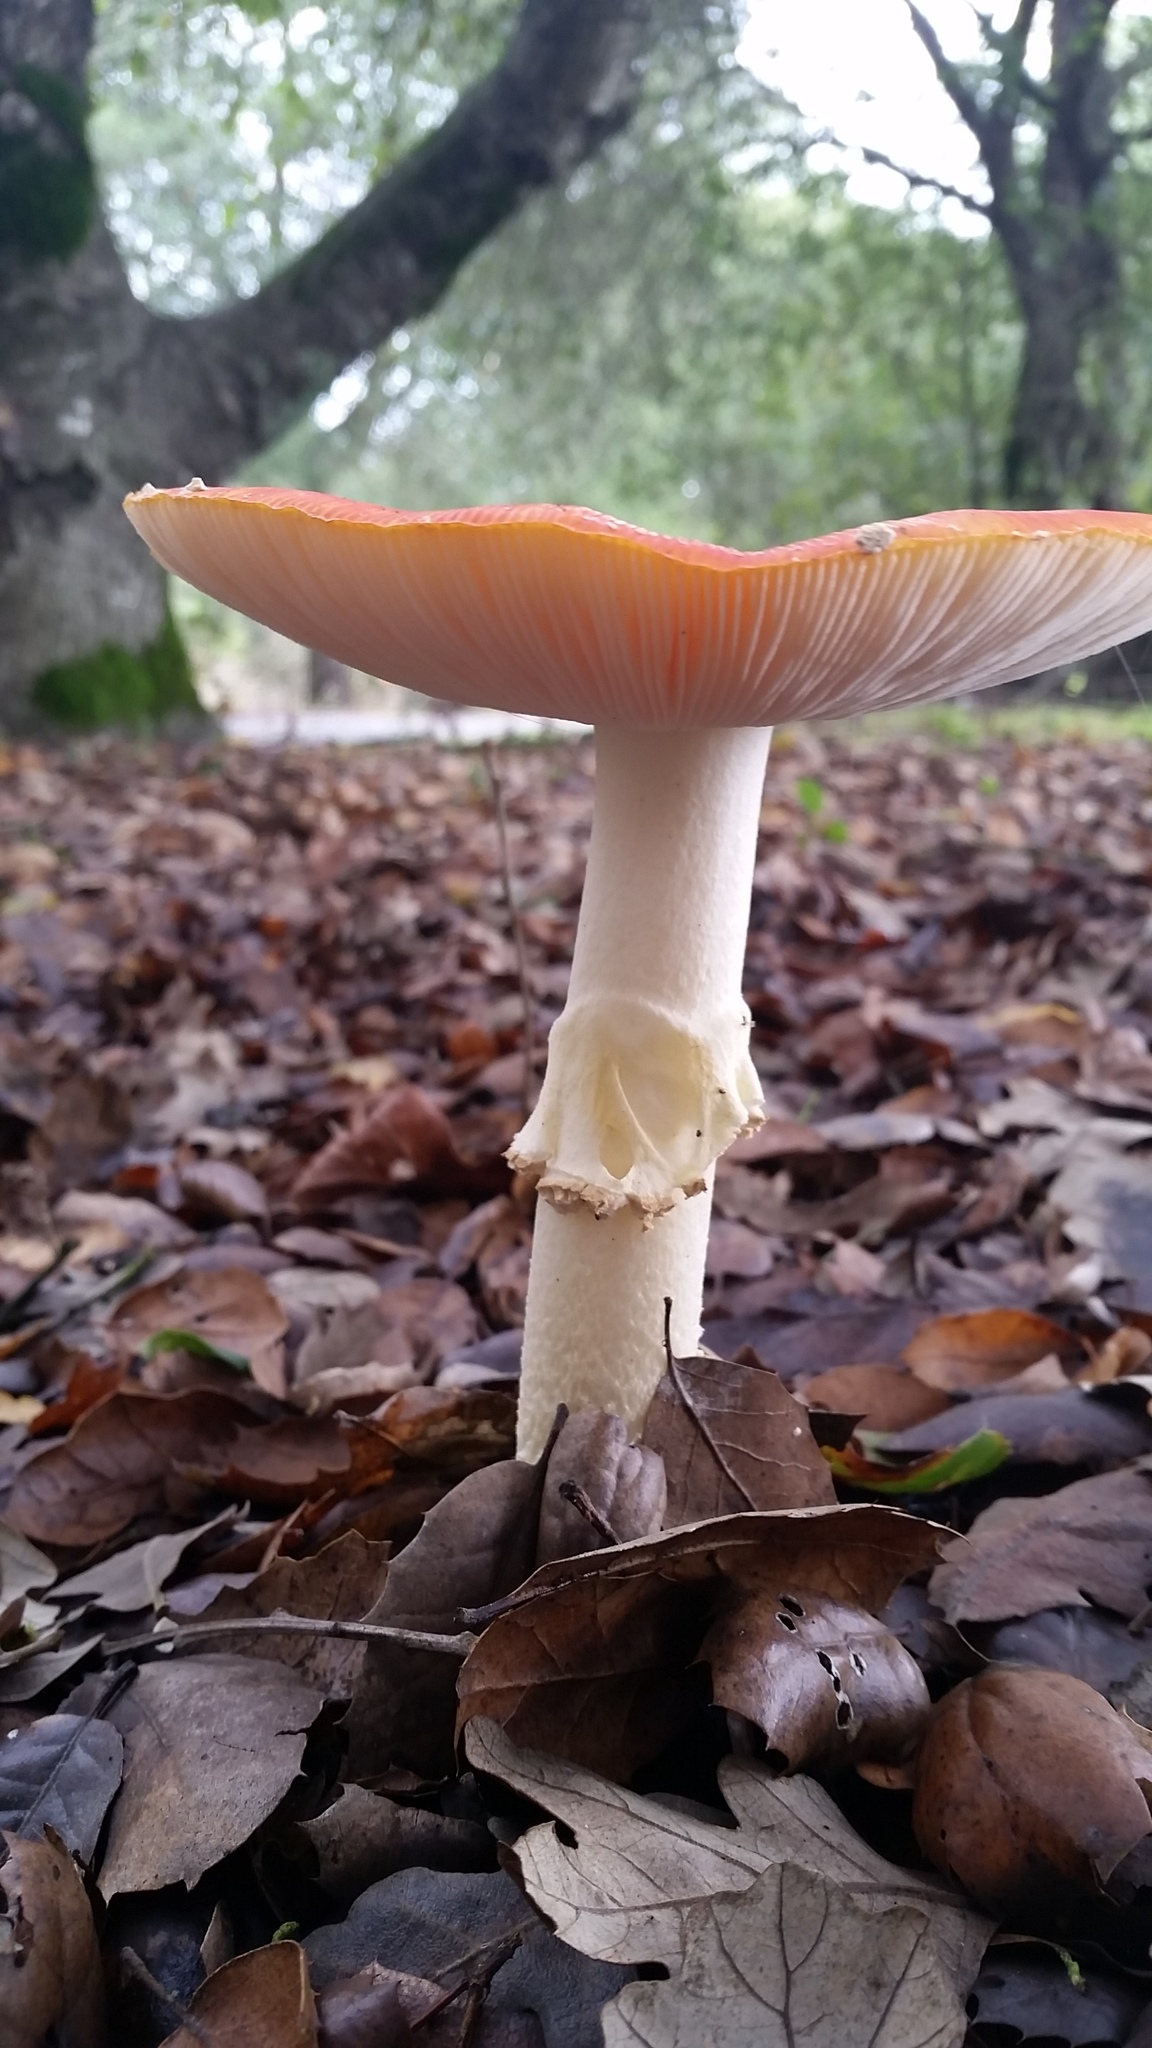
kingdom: Fungi
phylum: Basidiomycota
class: Agaricomycetes
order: Agaricales
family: Amanitaceae
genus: Amanita
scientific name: Amanita muscaria
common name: Fly agaric
